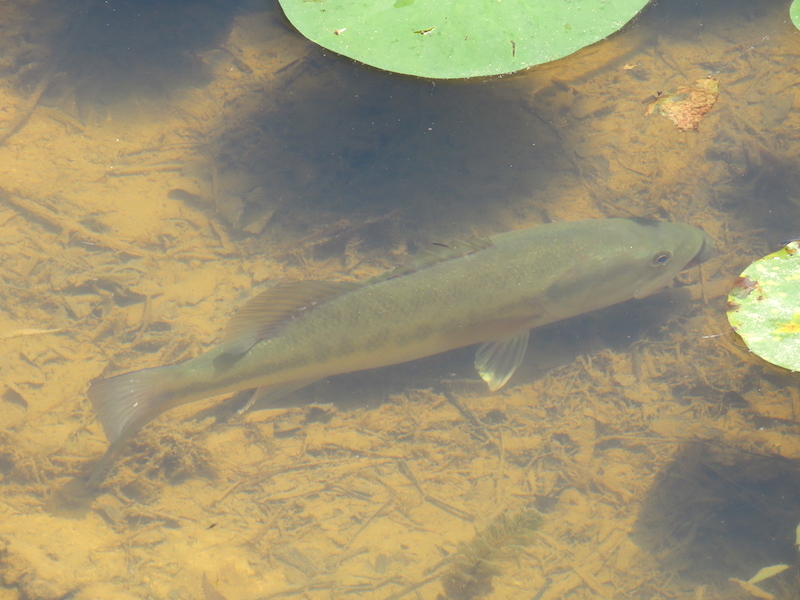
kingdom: Animalia
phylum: Chordata
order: Perciformes
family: Centrarchidae
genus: Micropterus
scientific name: Micropterus
